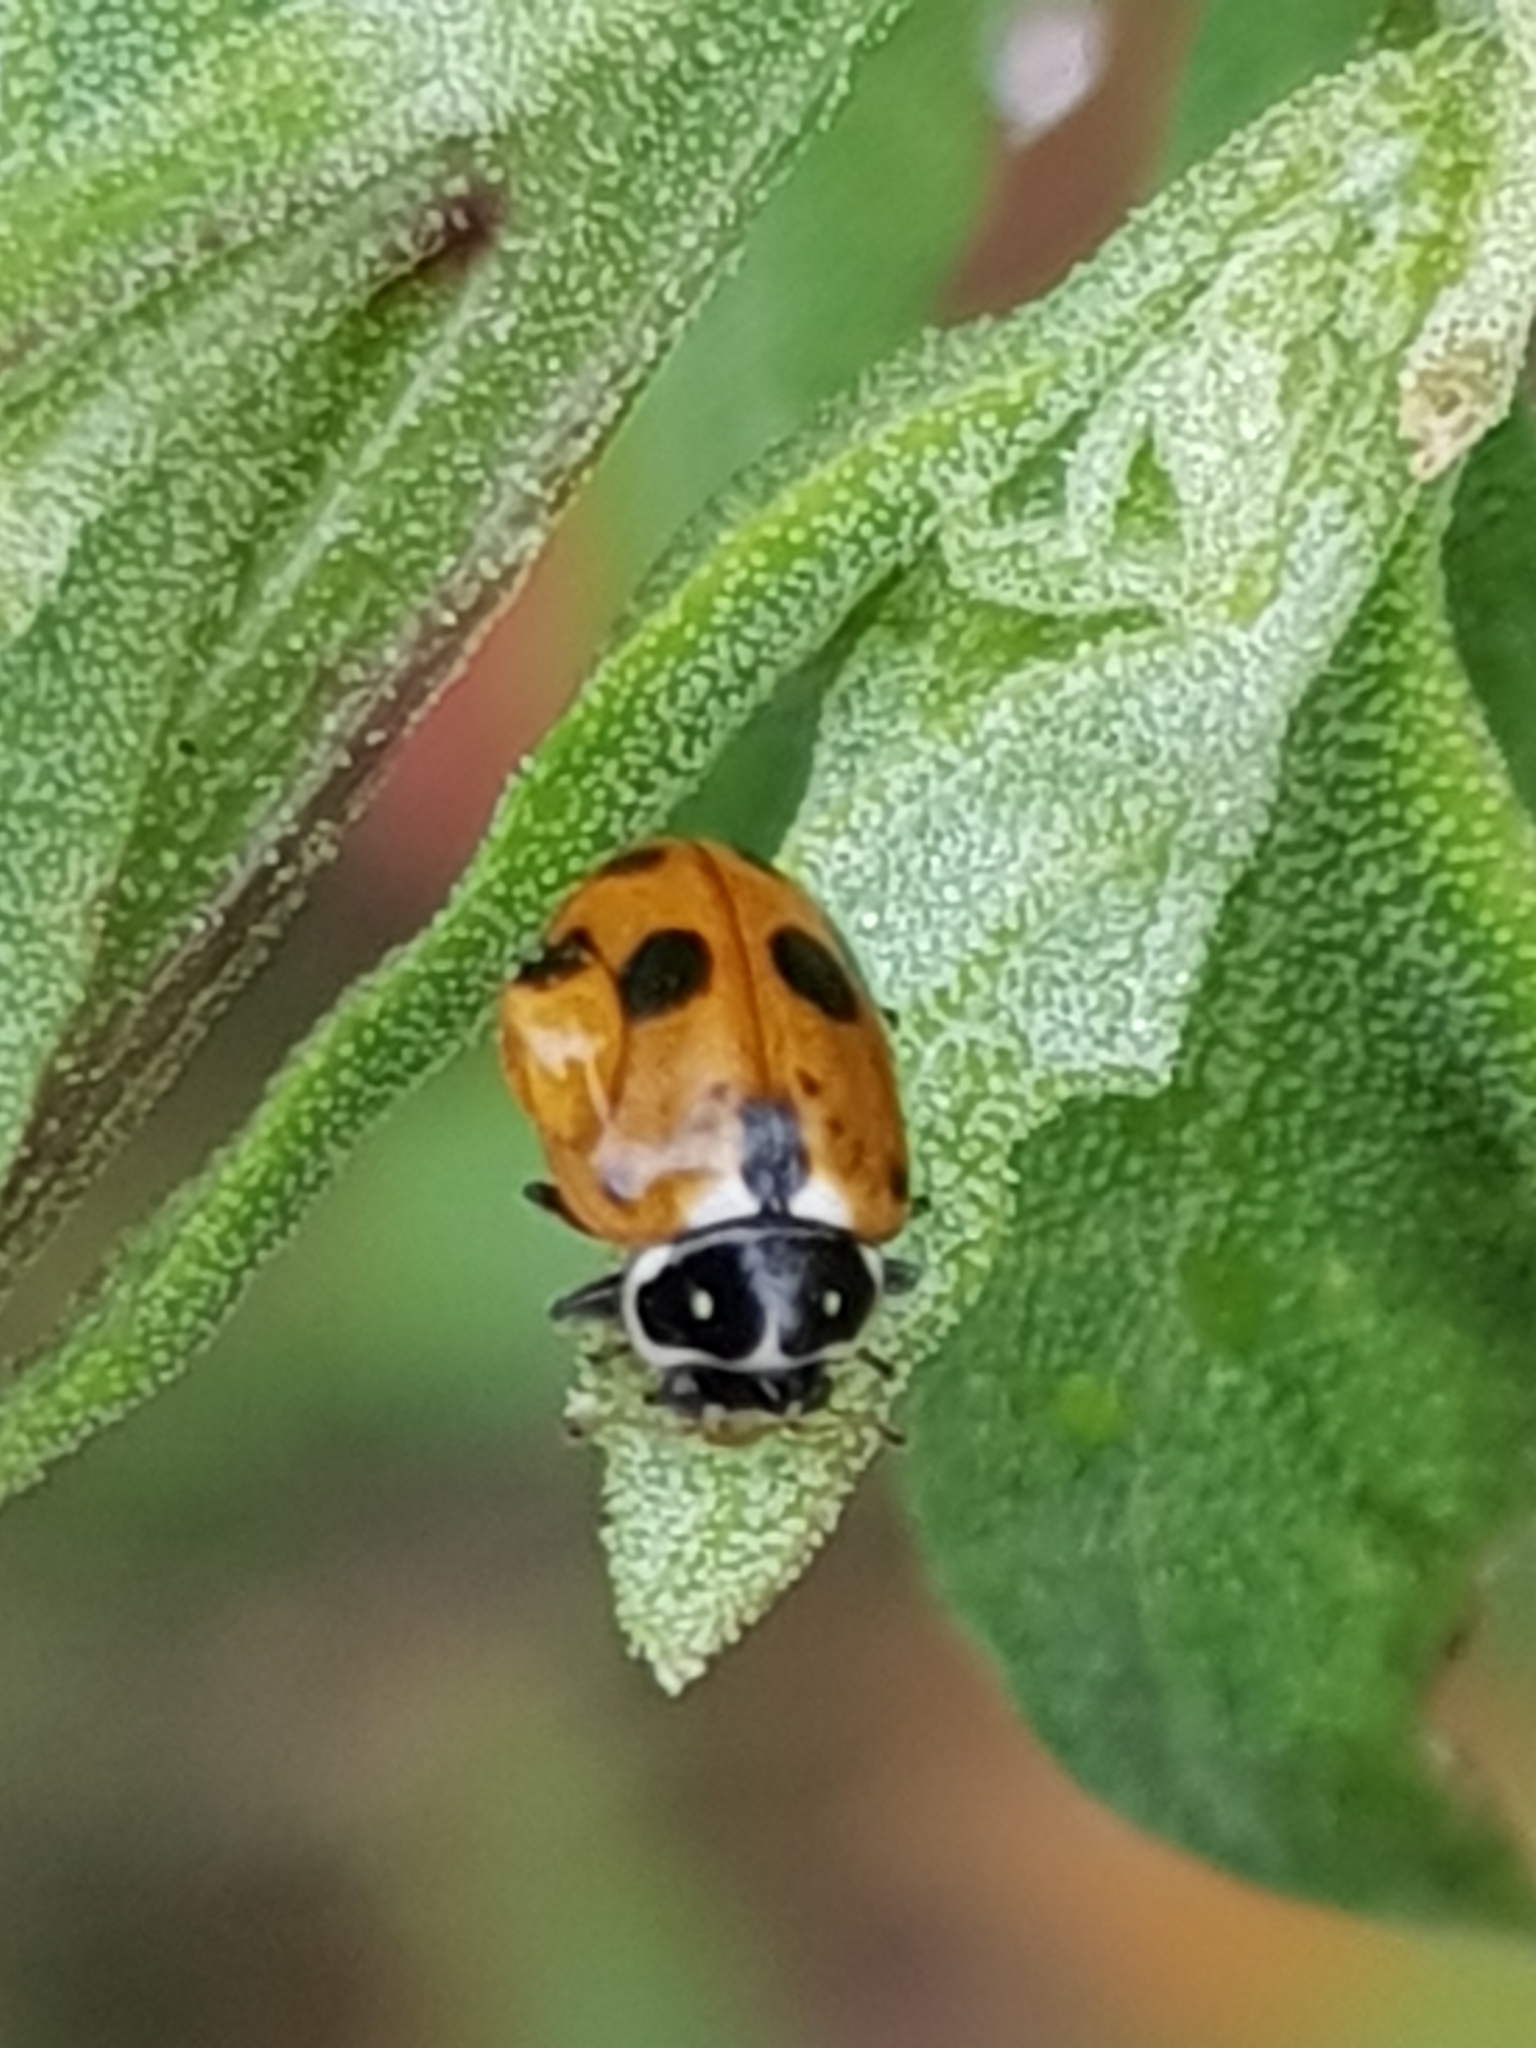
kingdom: Animalia
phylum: Arthropoda
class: Insecta
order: Coleoptera
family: Coccinellidae
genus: Hippodamia
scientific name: Hippodamia variegata
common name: Ladybird beetle
